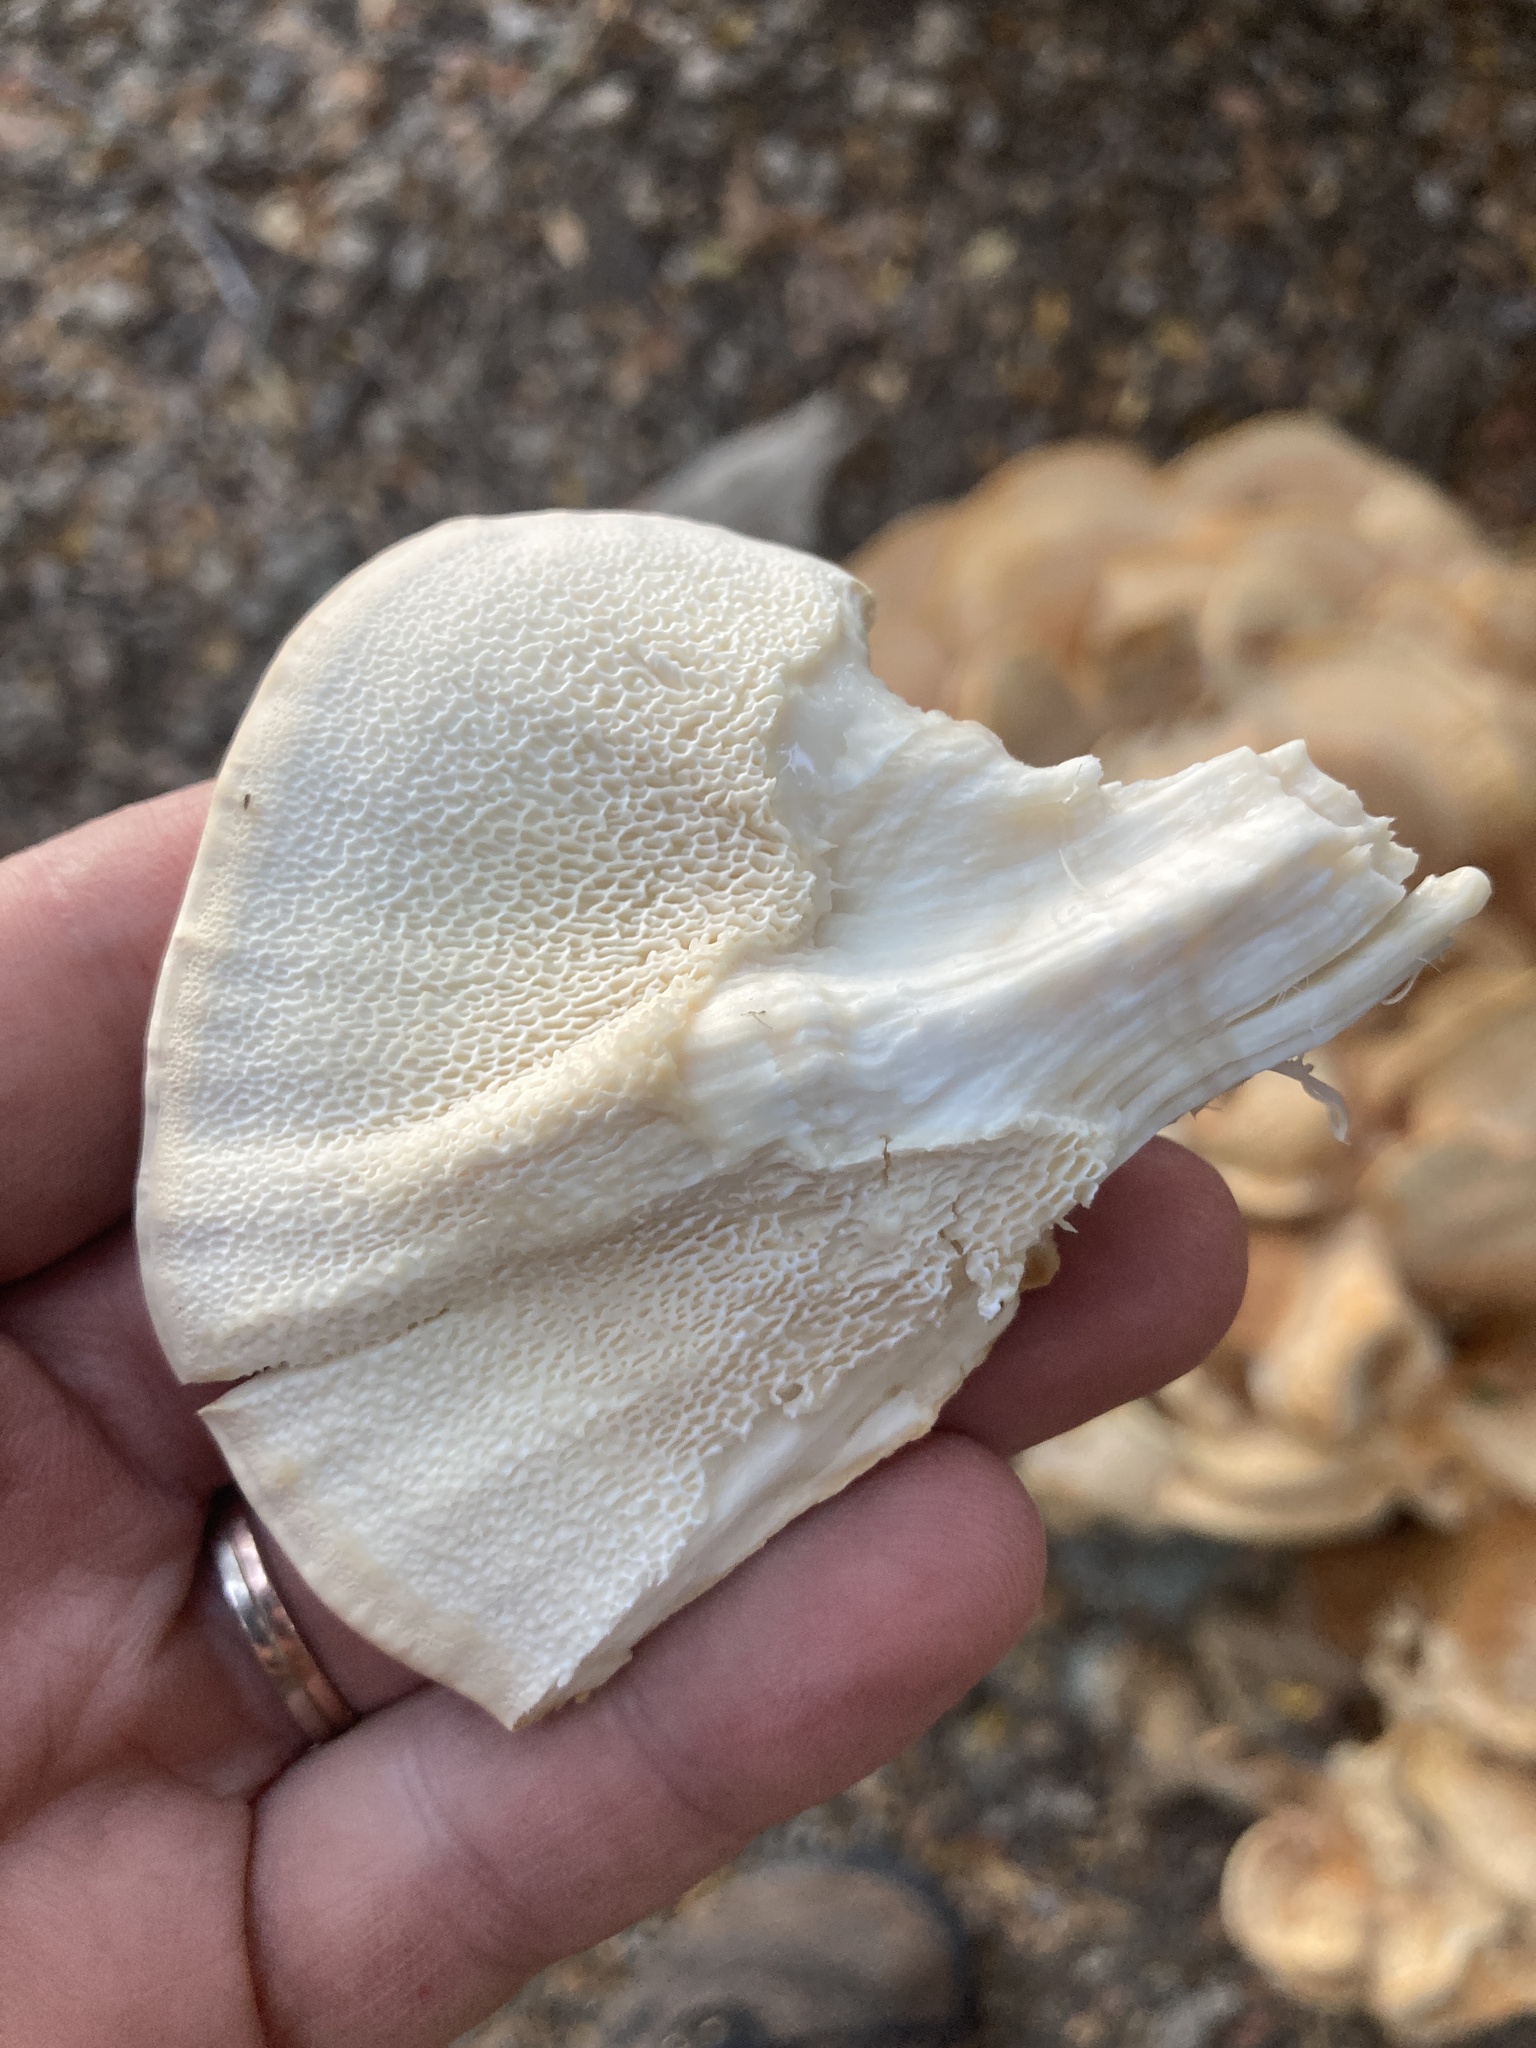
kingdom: Fungi
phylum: Basidiomycota
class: Agaricomycetes
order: Russulales
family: Bondarzewiaceae
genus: Bondarzewia
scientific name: Bondarzewia guaitecasensis
